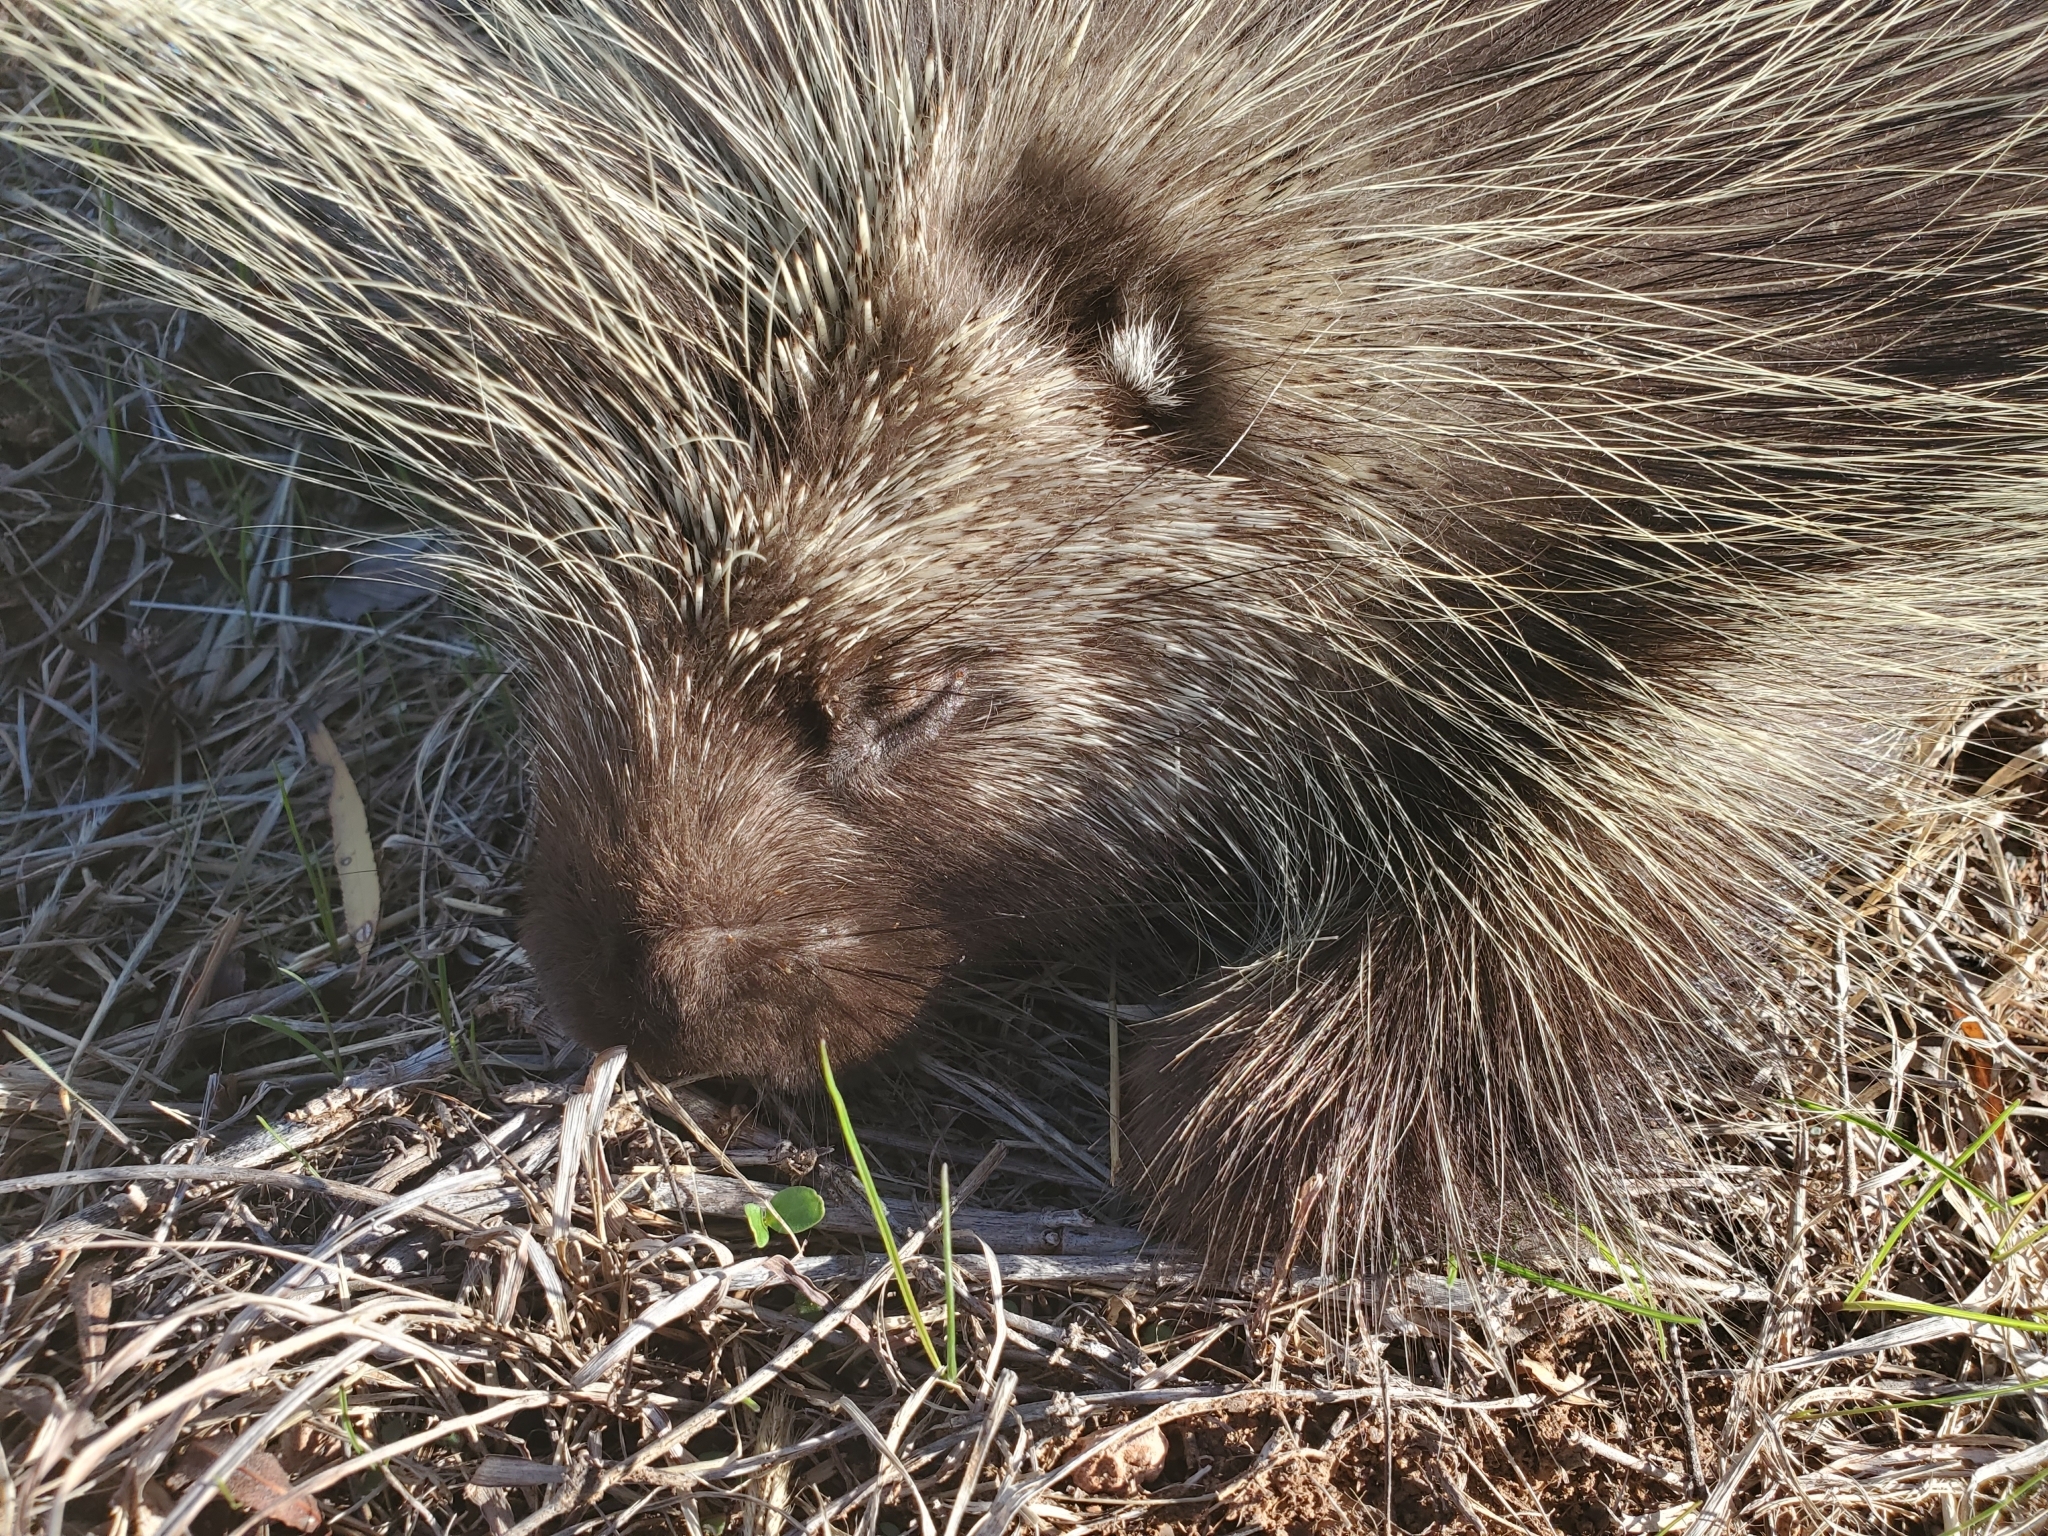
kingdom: Animalia
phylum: Chordata
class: Mammalia
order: Rodentia
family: Erethizontidae
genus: Erethizon
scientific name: Erethizon dorsatus
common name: North american porcupine
